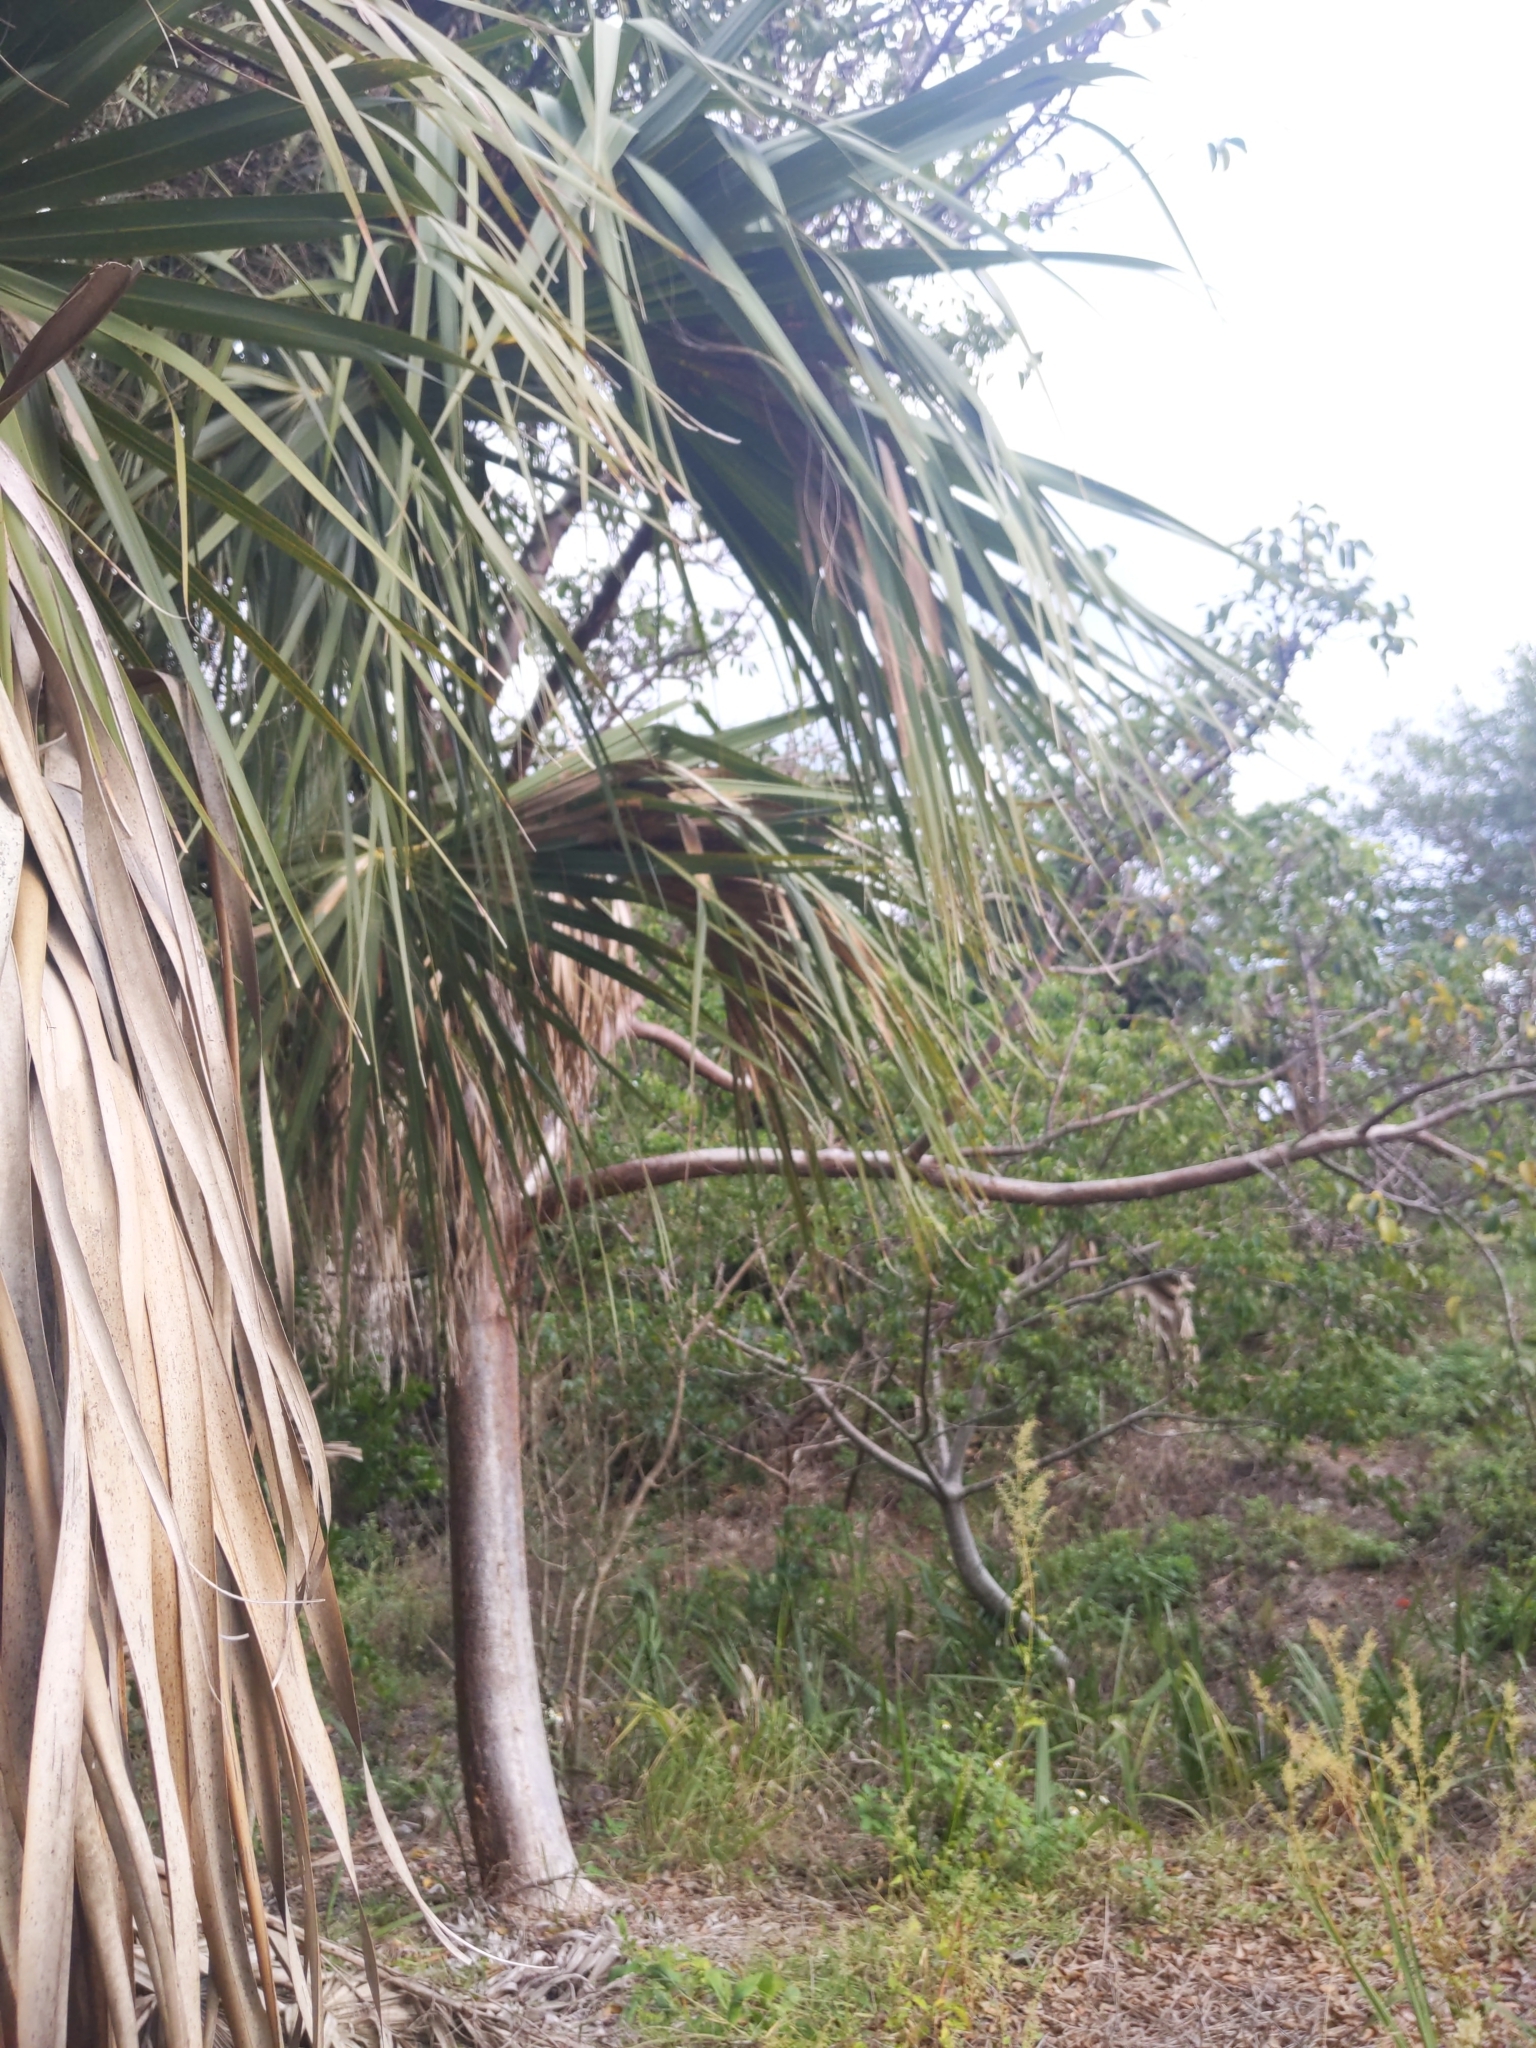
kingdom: Plantae
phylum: Tracheophyta
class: Liliopsida
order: Arecales
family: Arecaceae
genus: Sabal
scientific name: Sabal palmetto
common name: Blue palmetto
